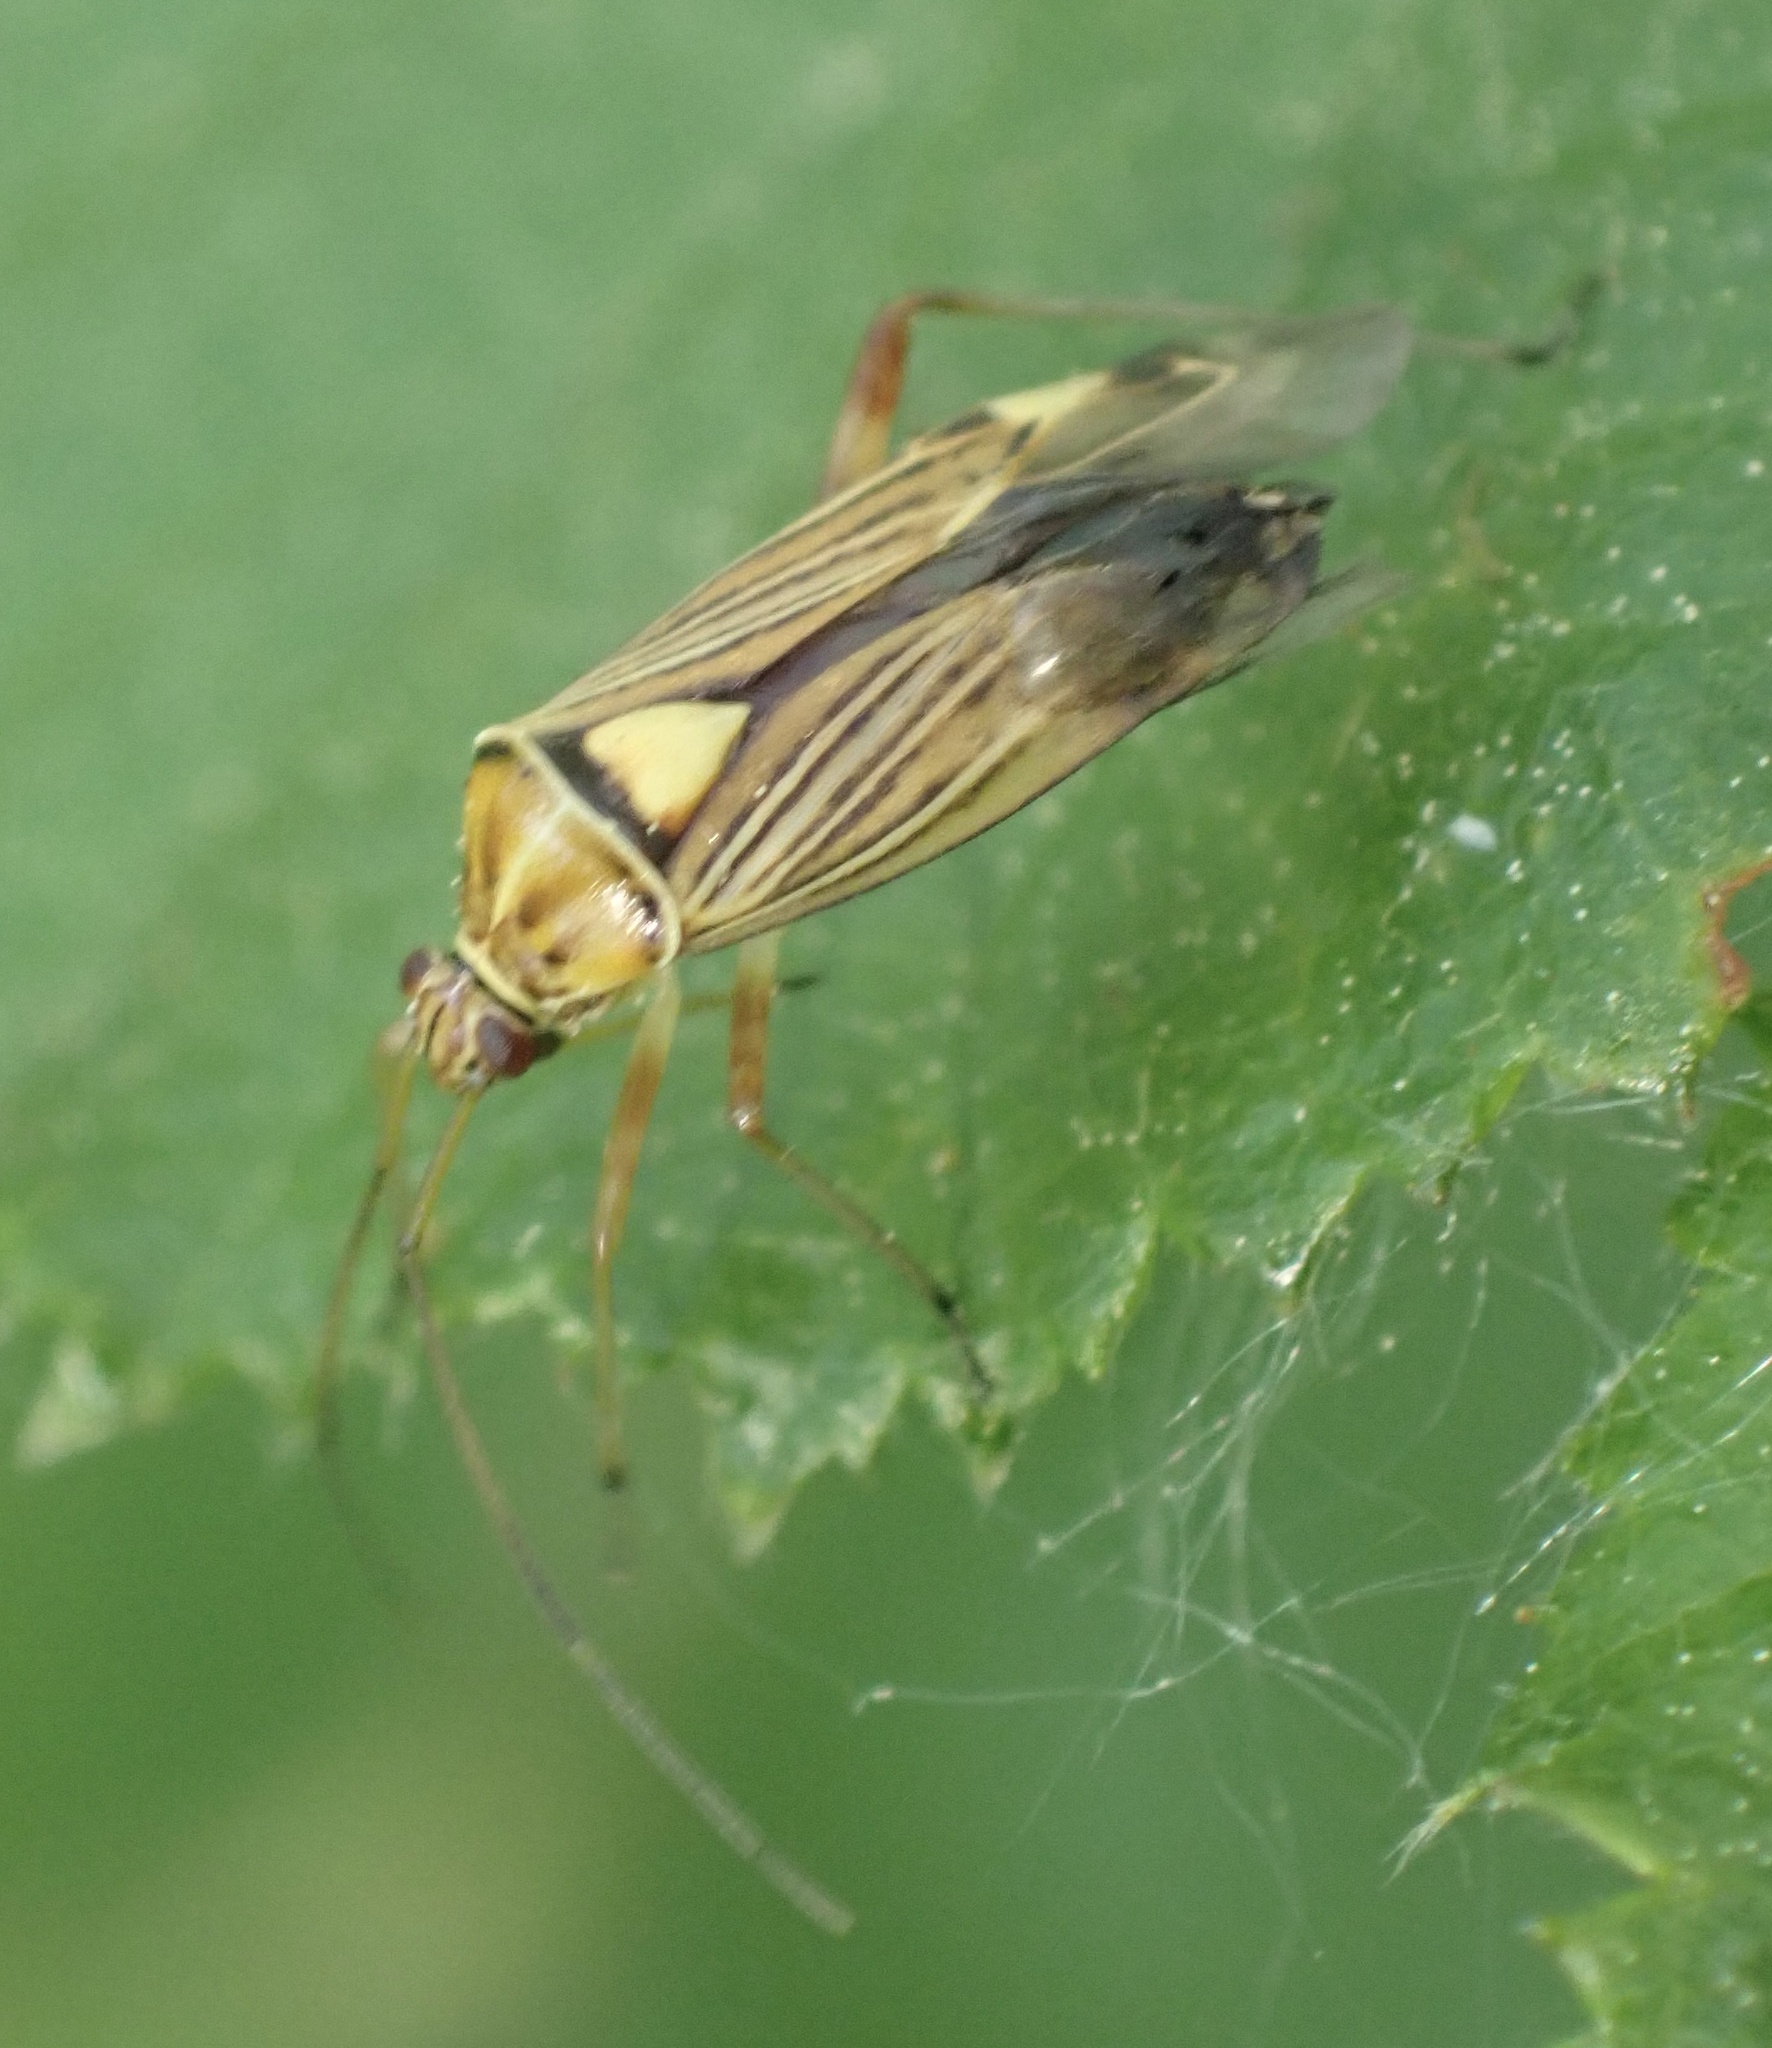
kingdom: Animalia
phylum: Arthropoda
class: Insecta
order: Hemiptera
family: Miridae
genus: Rhabdomiris
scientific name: Rhabdomiris striatellus
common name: Plant bug
